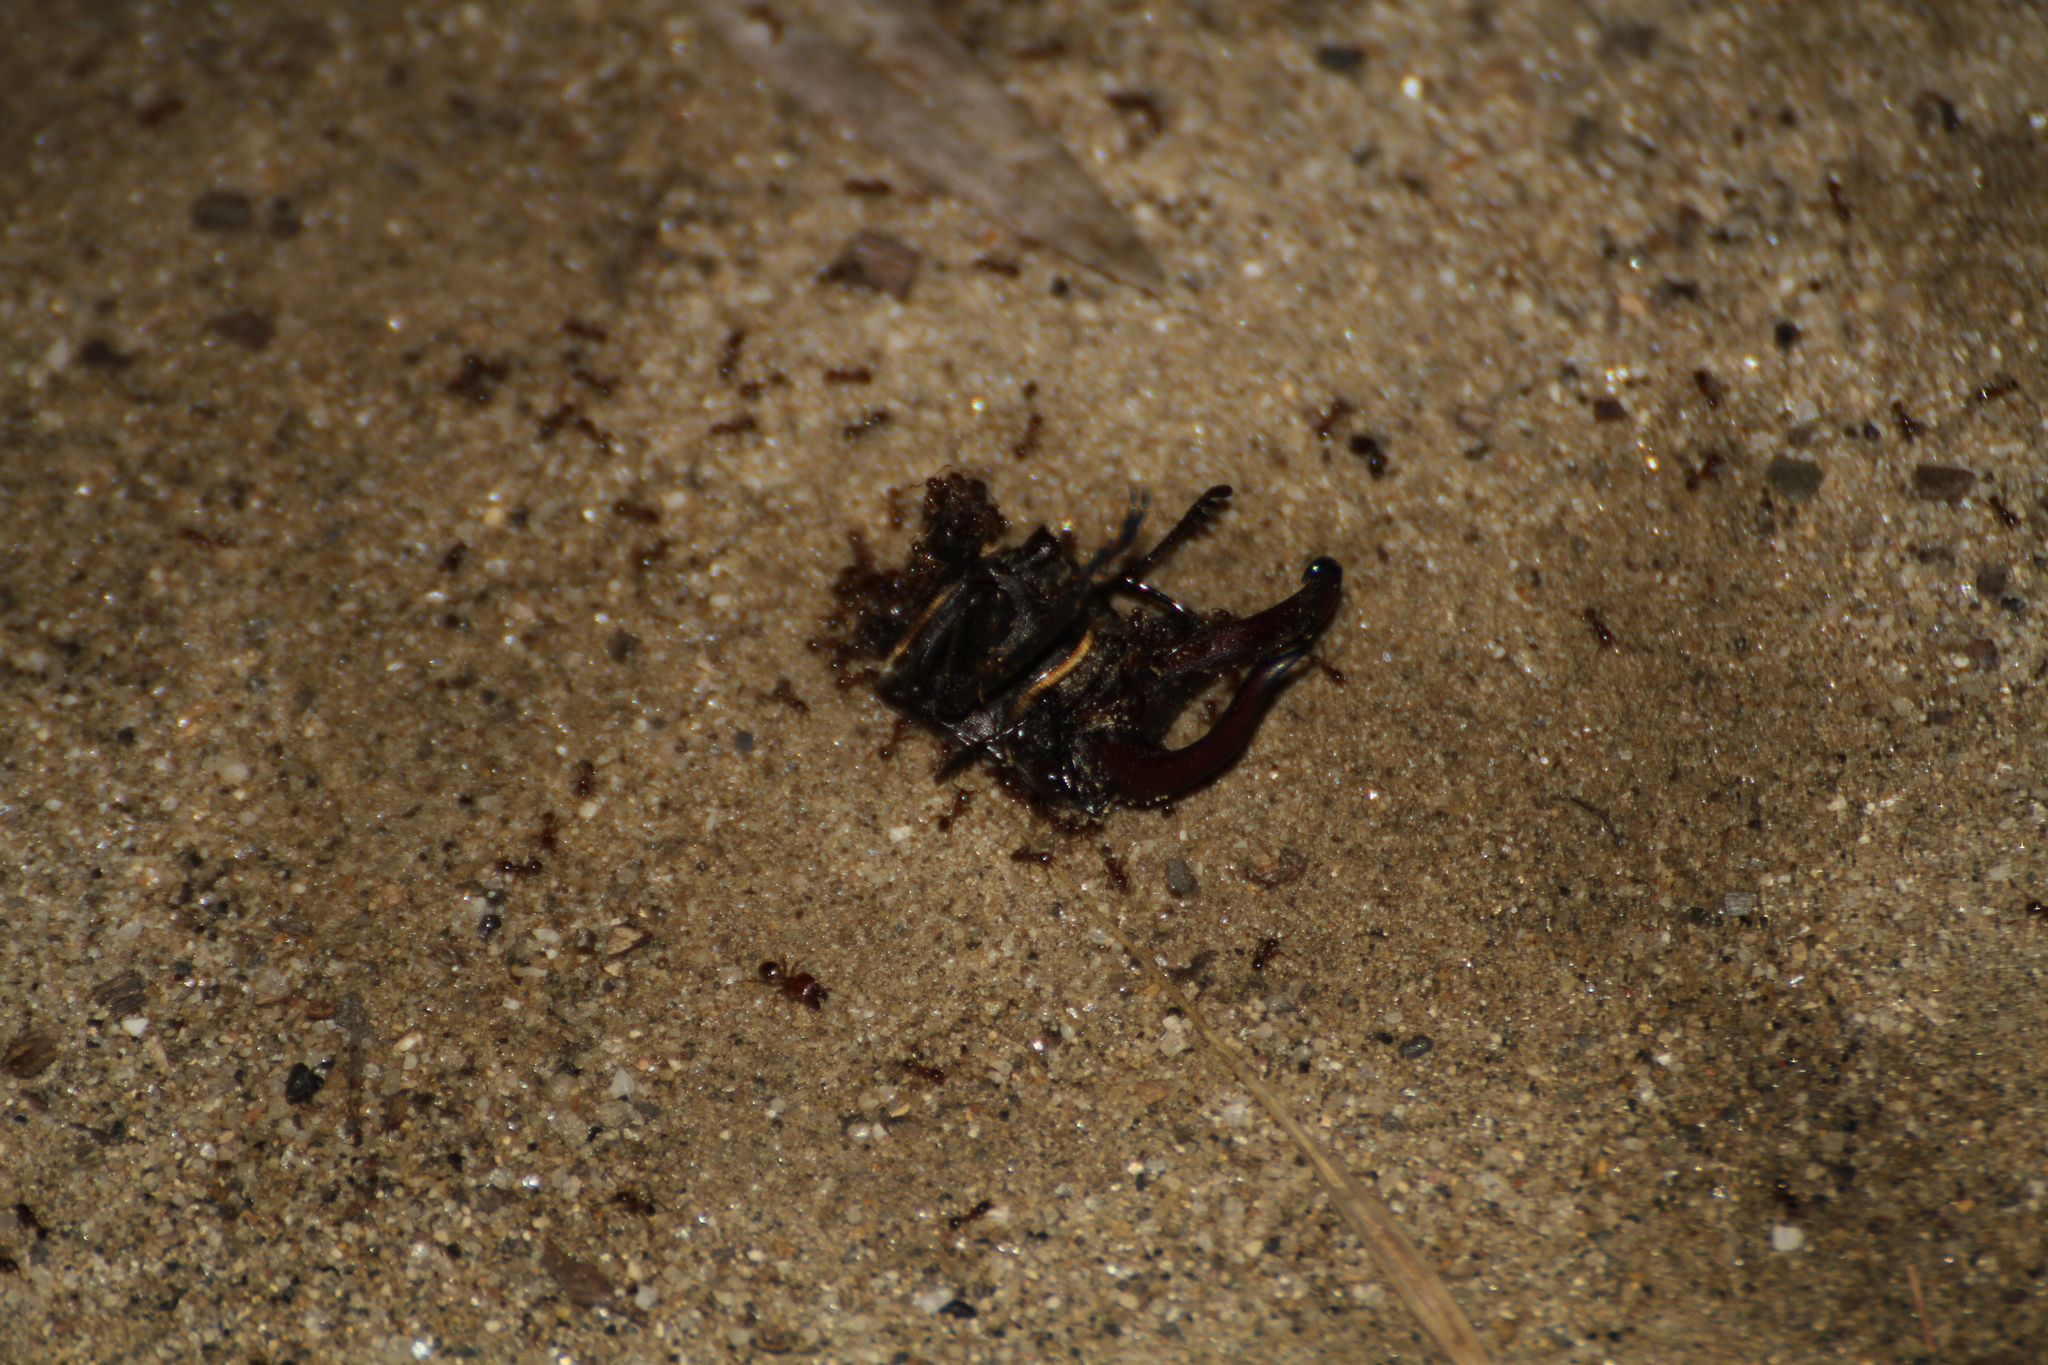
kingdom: Animalia
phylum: Arthropoda
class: Insecta
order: Coleoptera
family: Lucanidae
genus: Lucanus
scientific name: Lucanus cervus
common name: Stag beetle
